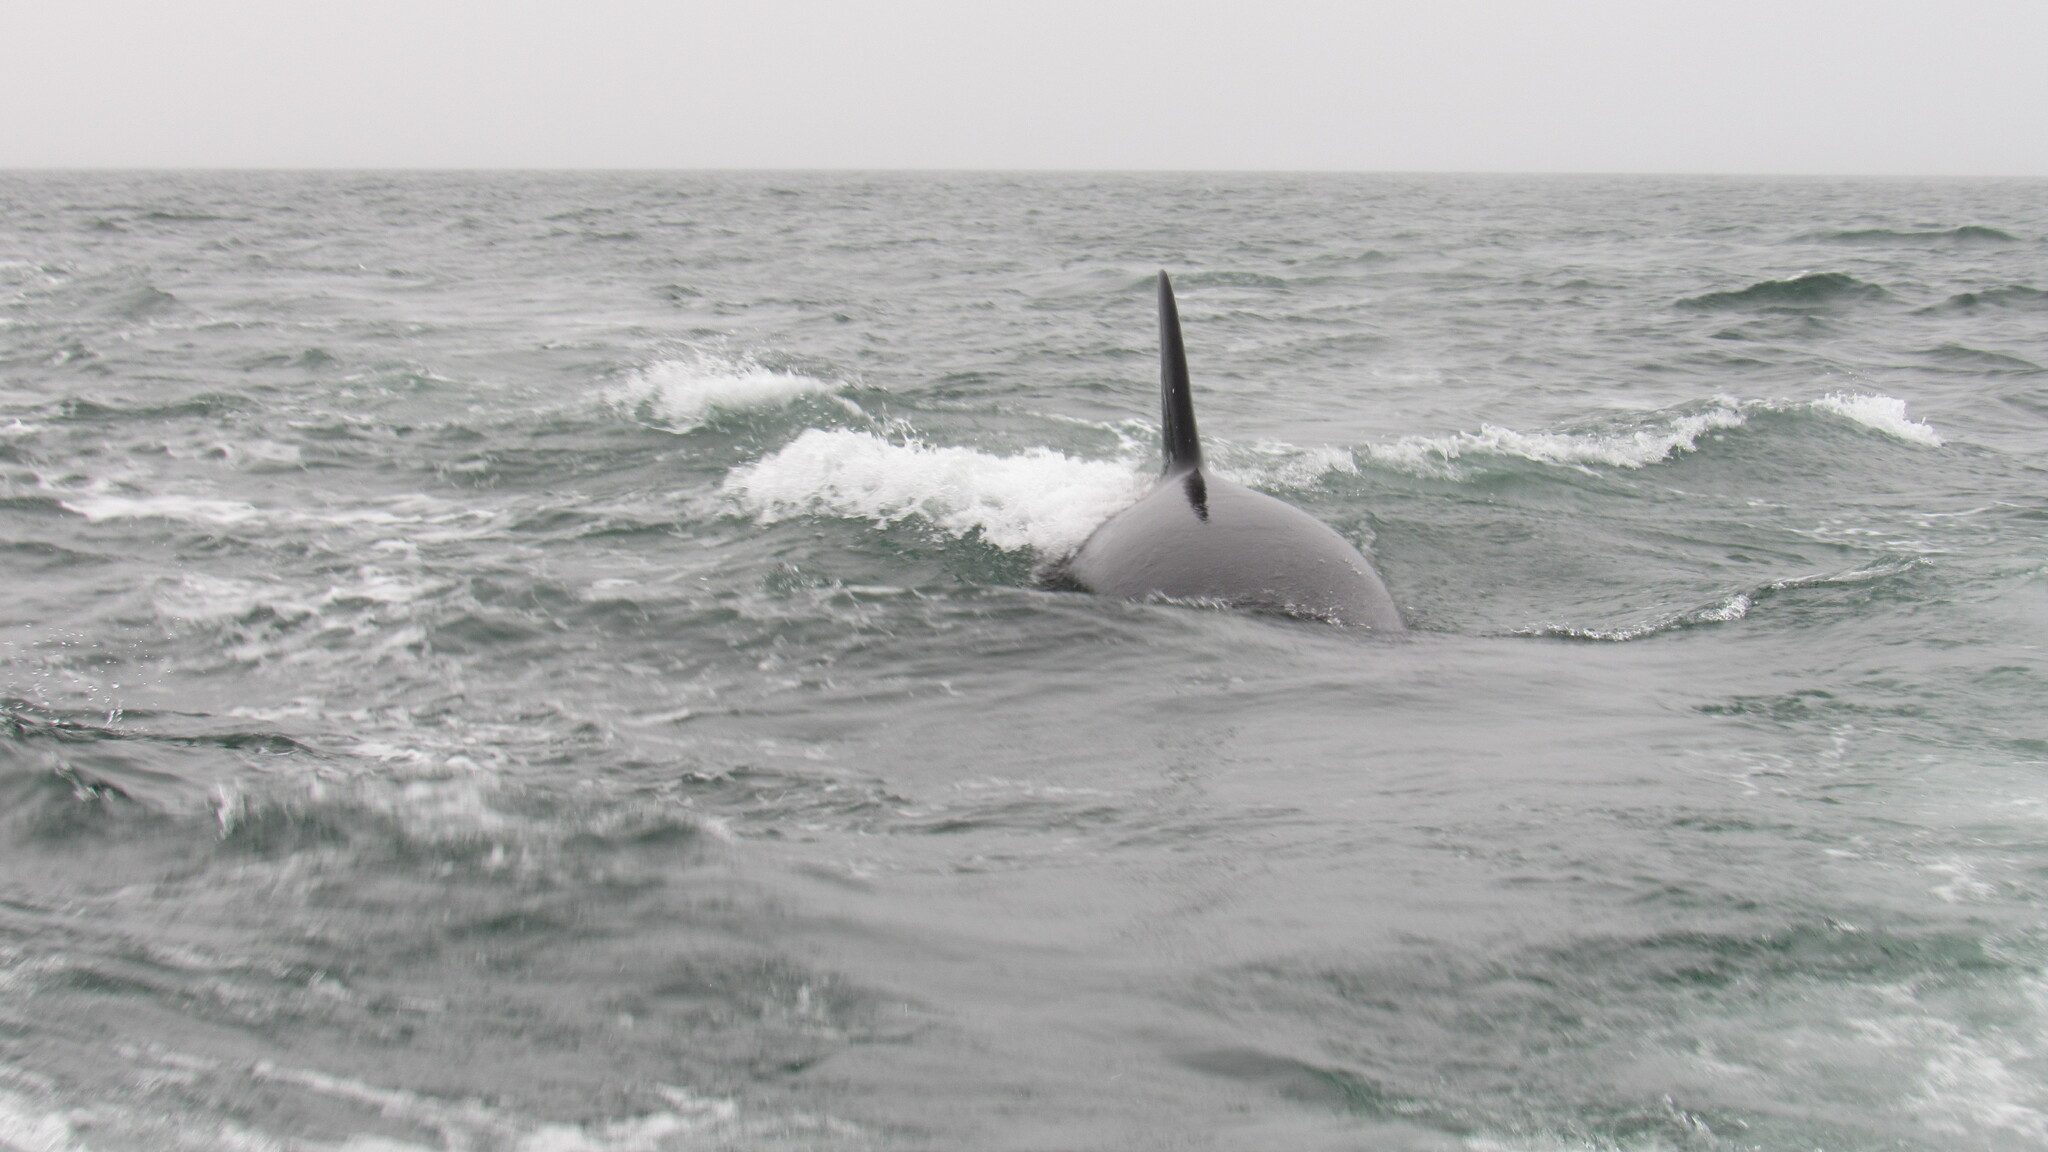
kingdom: Animalia
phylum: Chordata
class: Mammalia
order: Cetacea
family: Delphinidae
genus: Orcinus
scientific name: Orcinus orca
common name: Killer whale
